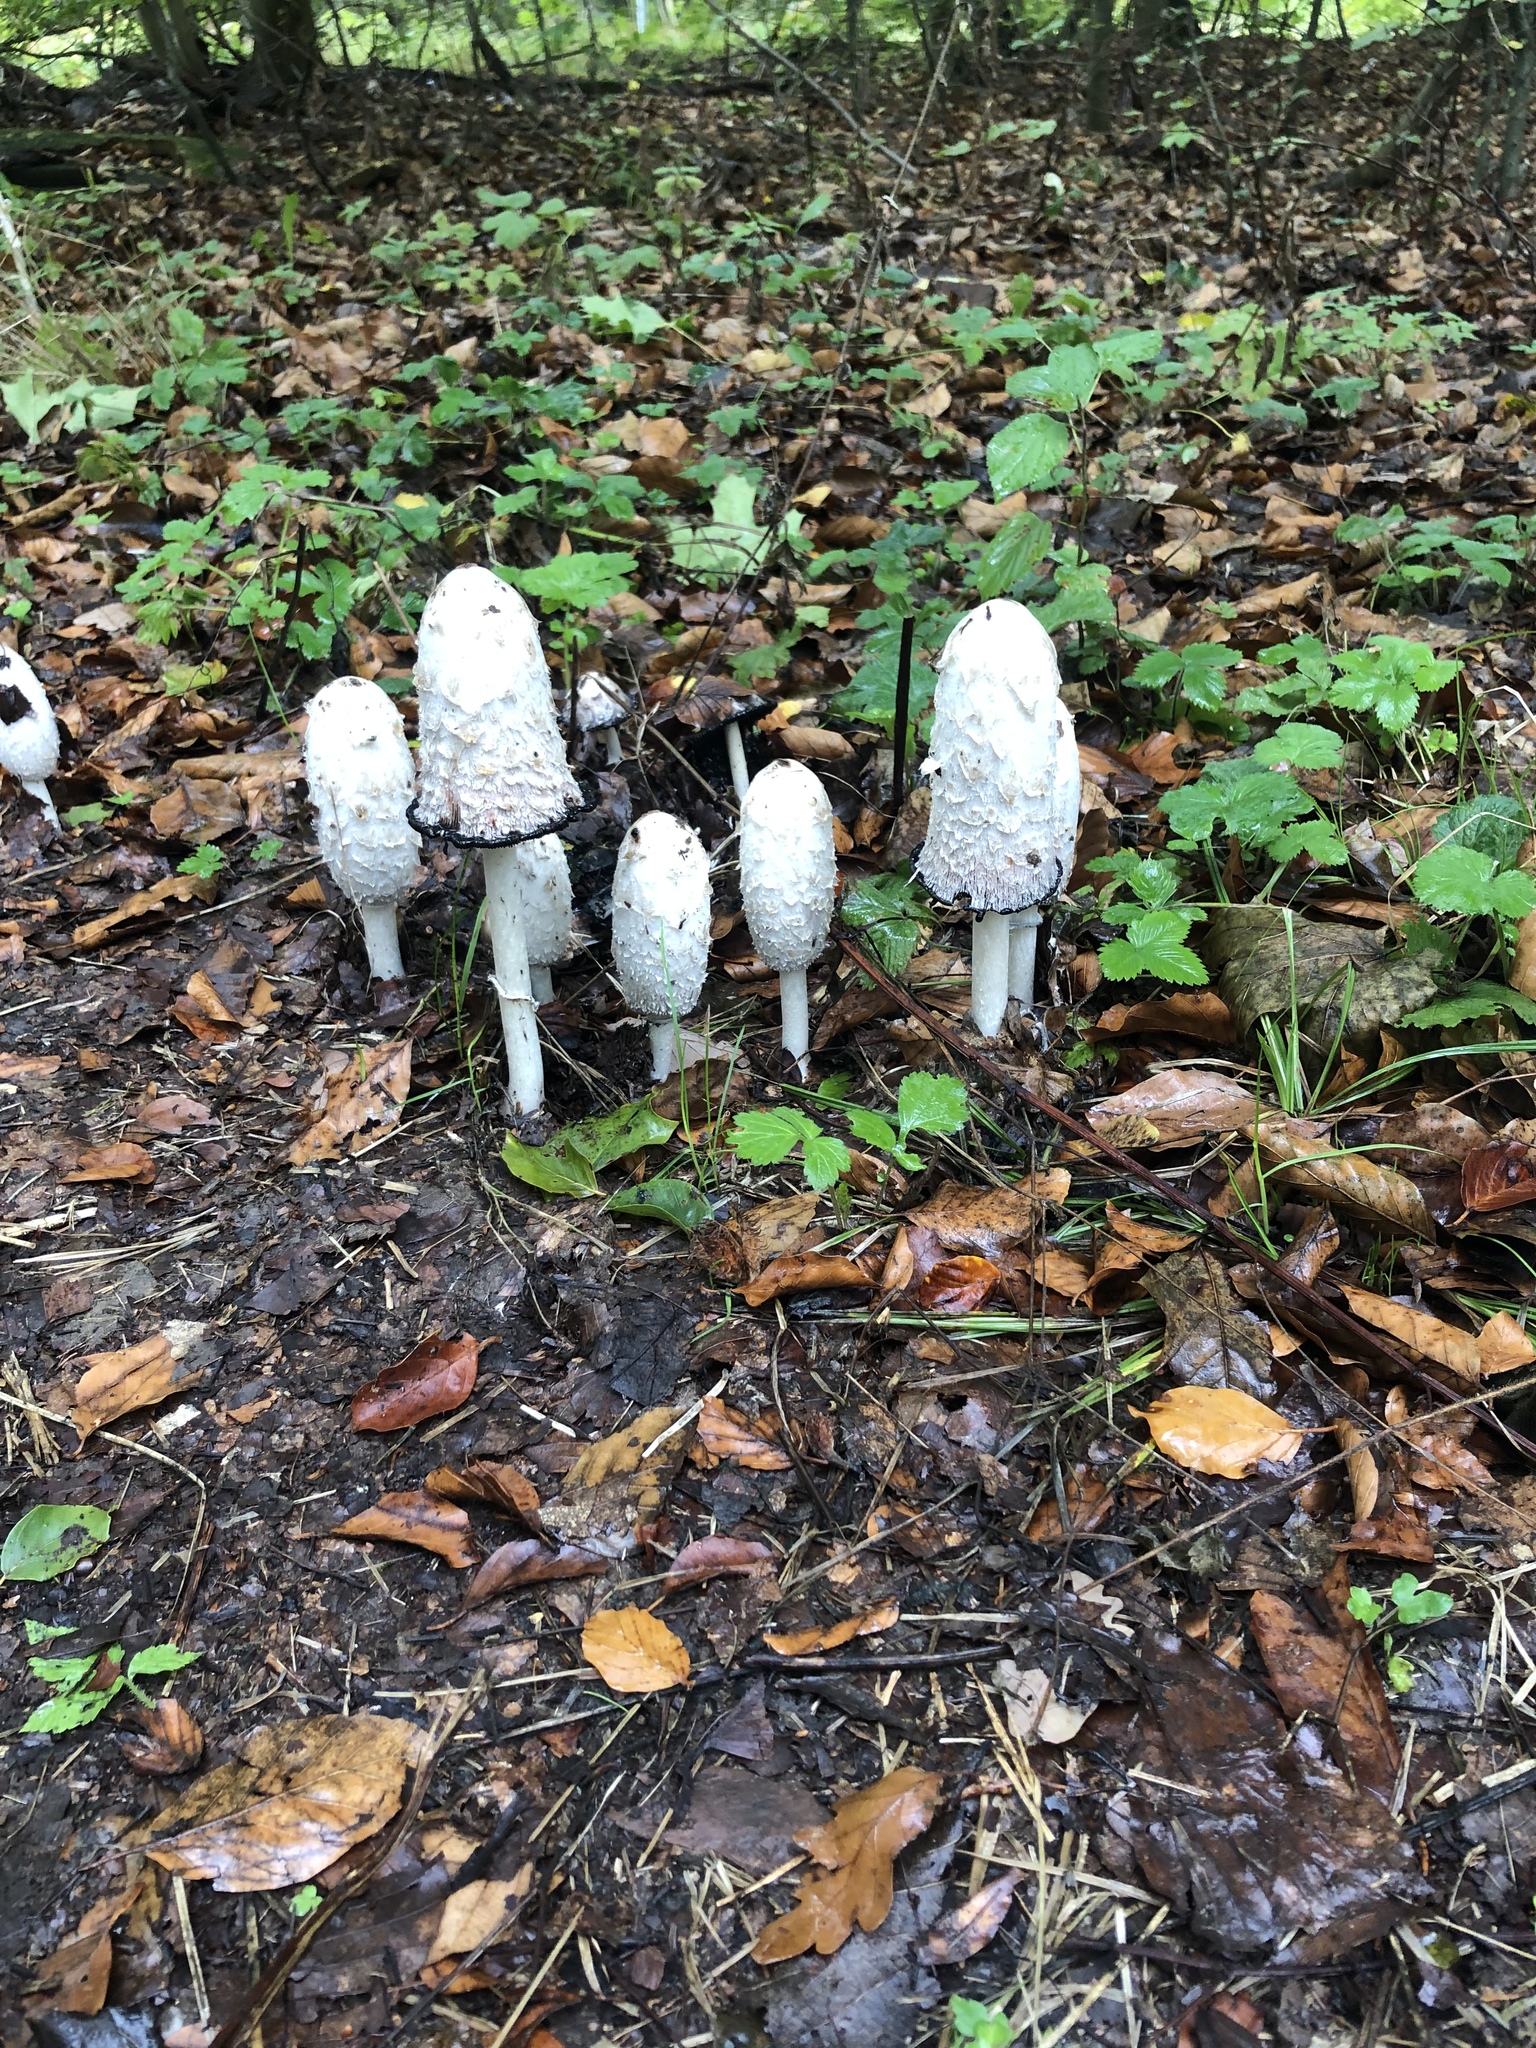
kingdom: Fungi
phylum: Basidiomycota
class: Agaricomycetes
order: Agaricales
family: Agaricaceae
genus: Coprinus
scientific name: Coprinus comatus
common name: Lawyer's wig
